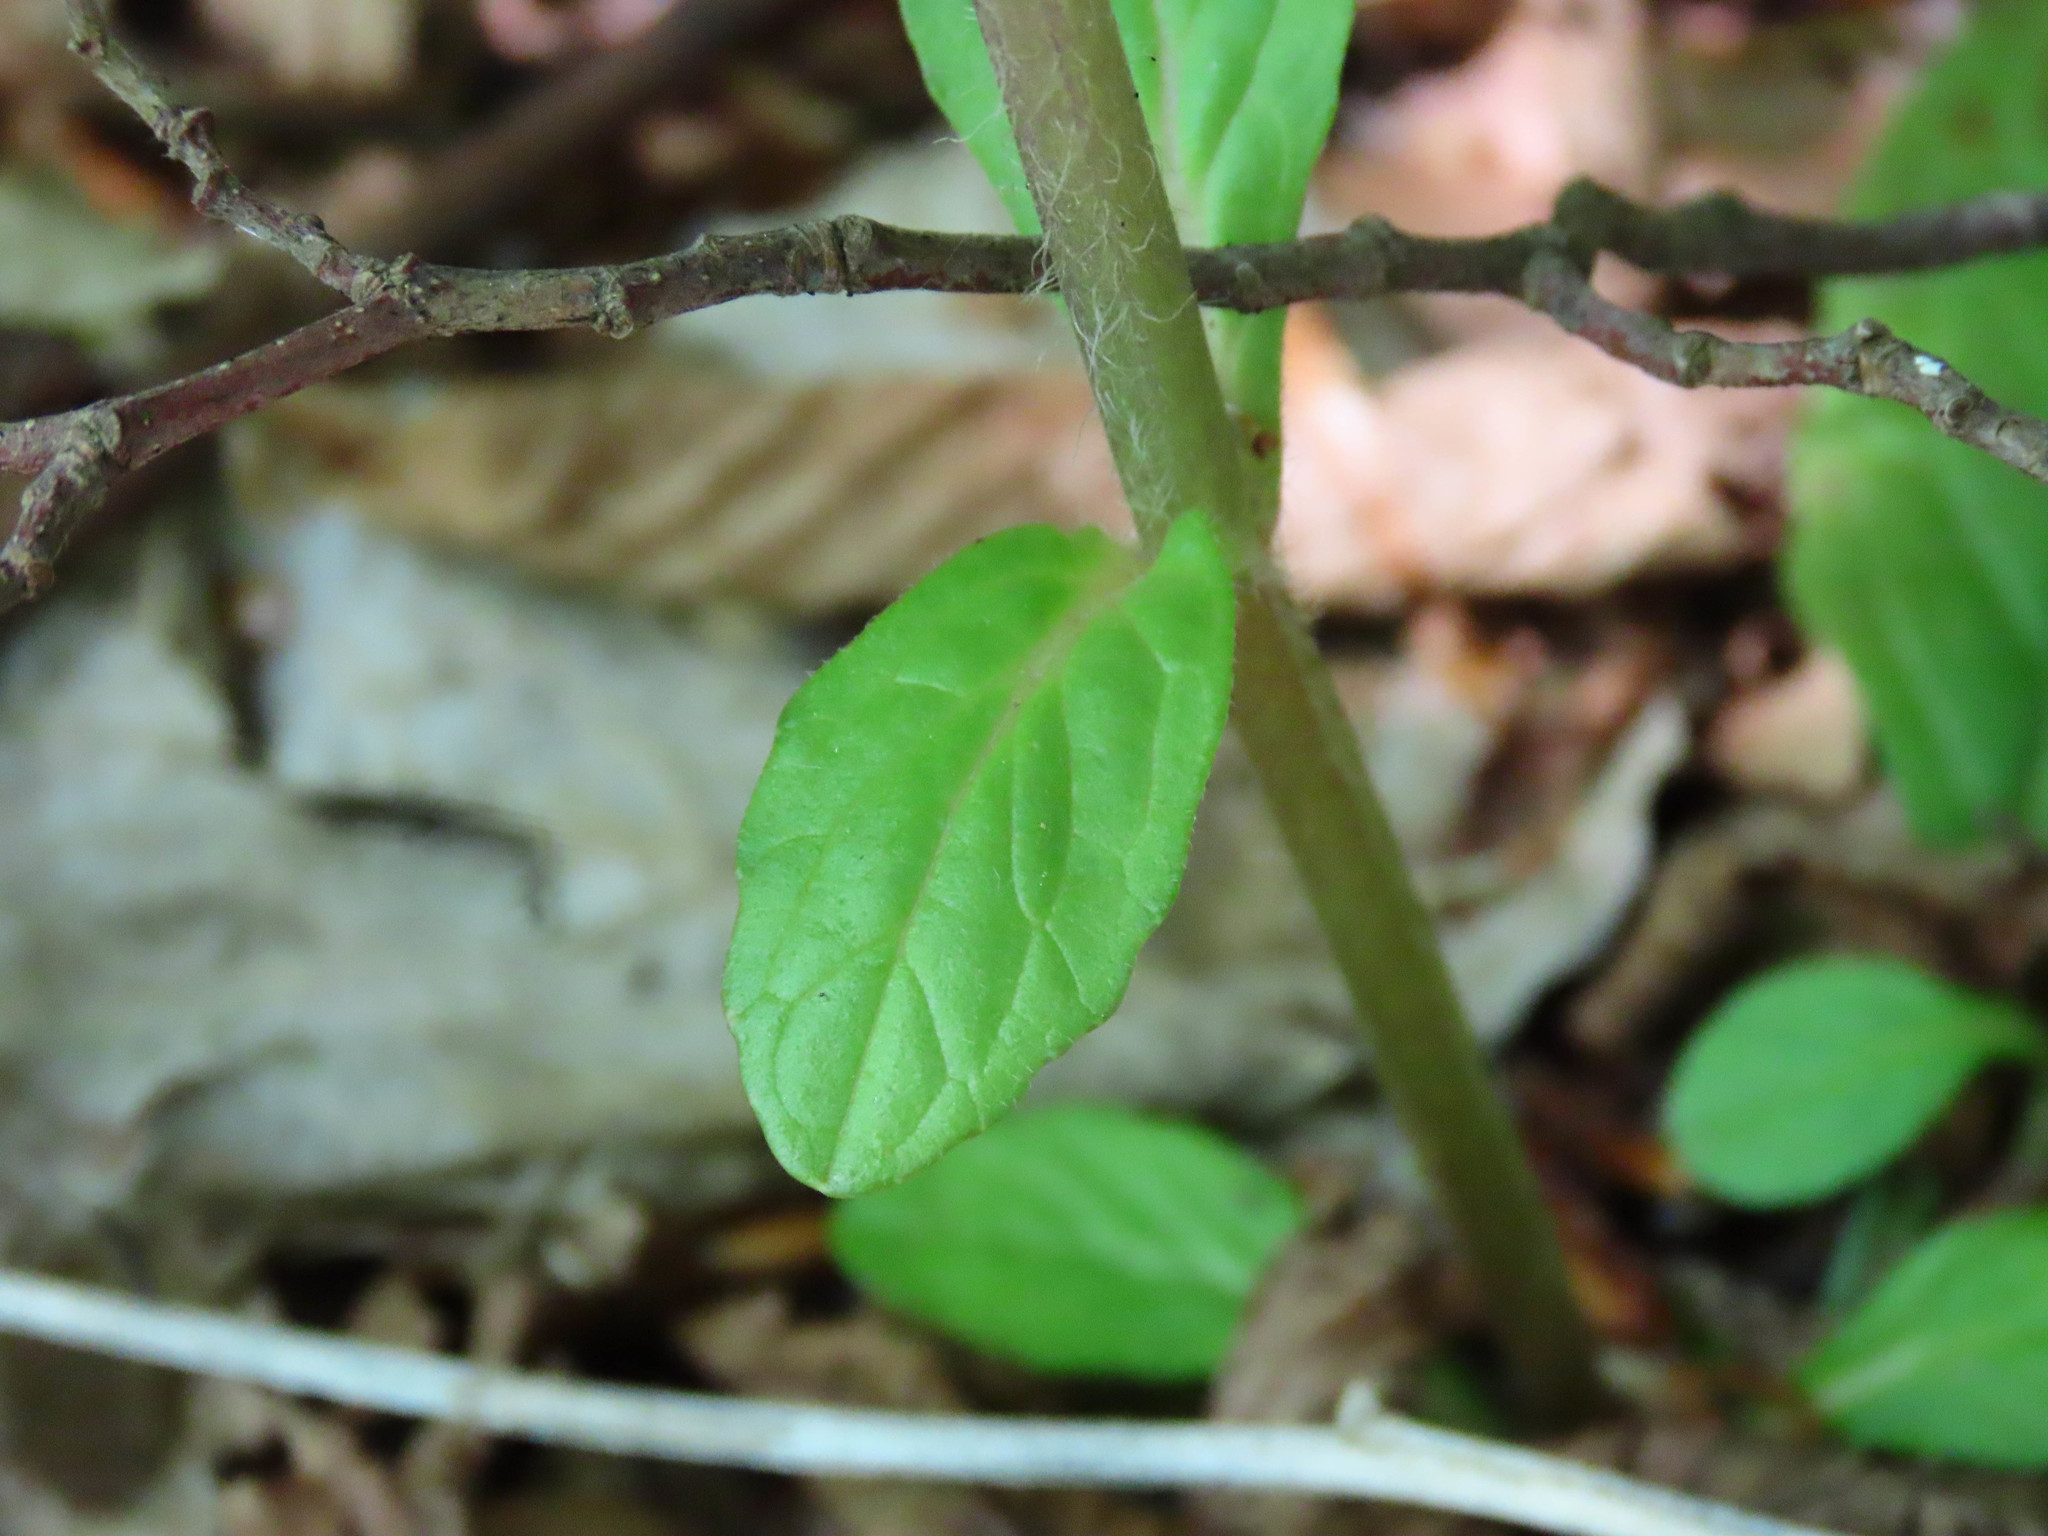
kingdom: Plantae
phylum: Tracheophyta
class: Magnoliopsida
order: Lamiales
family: Lamiaceae
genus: Ajuga
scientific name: Ajuga reptans
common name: Bugle
